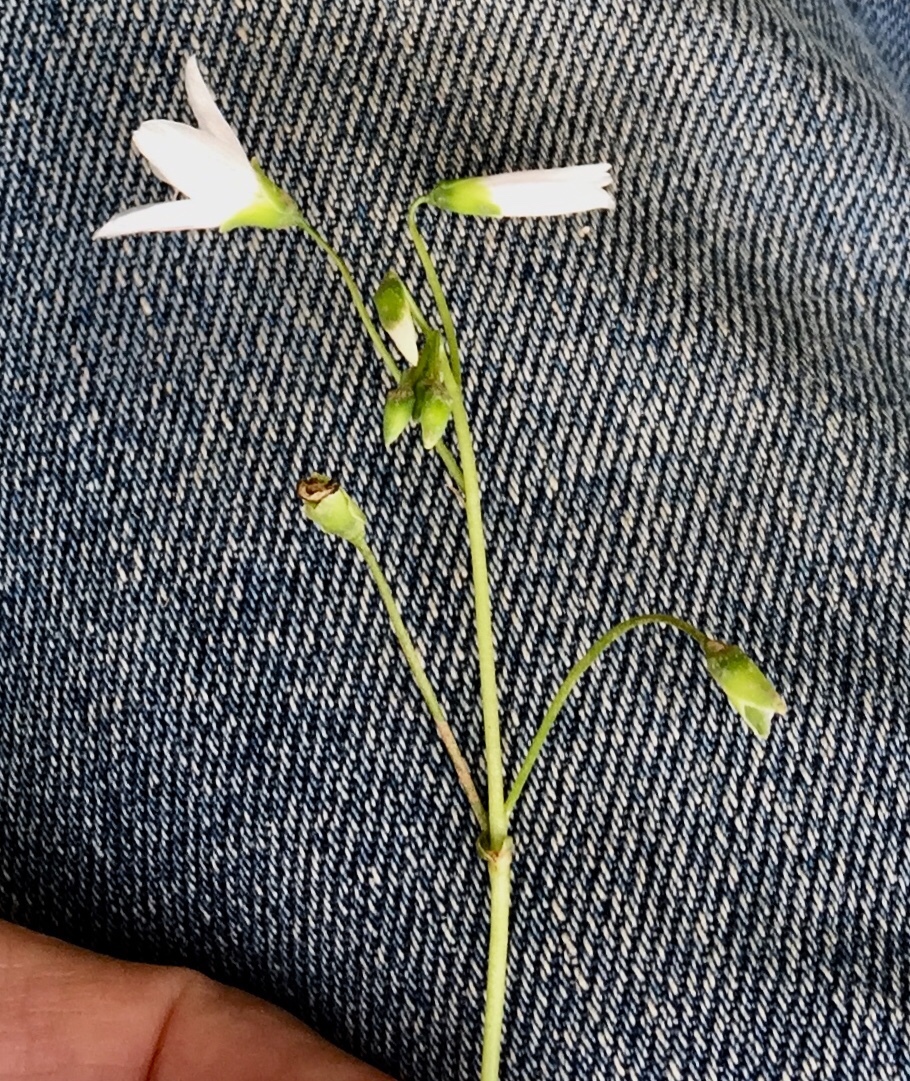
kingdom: Plantae
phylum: Tracheophyta
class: Magnoliopsida
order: Caryophyllales
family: Montiaceae
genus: Claytonia
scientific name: Claytonia virginica
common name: Virginia springbeauty
